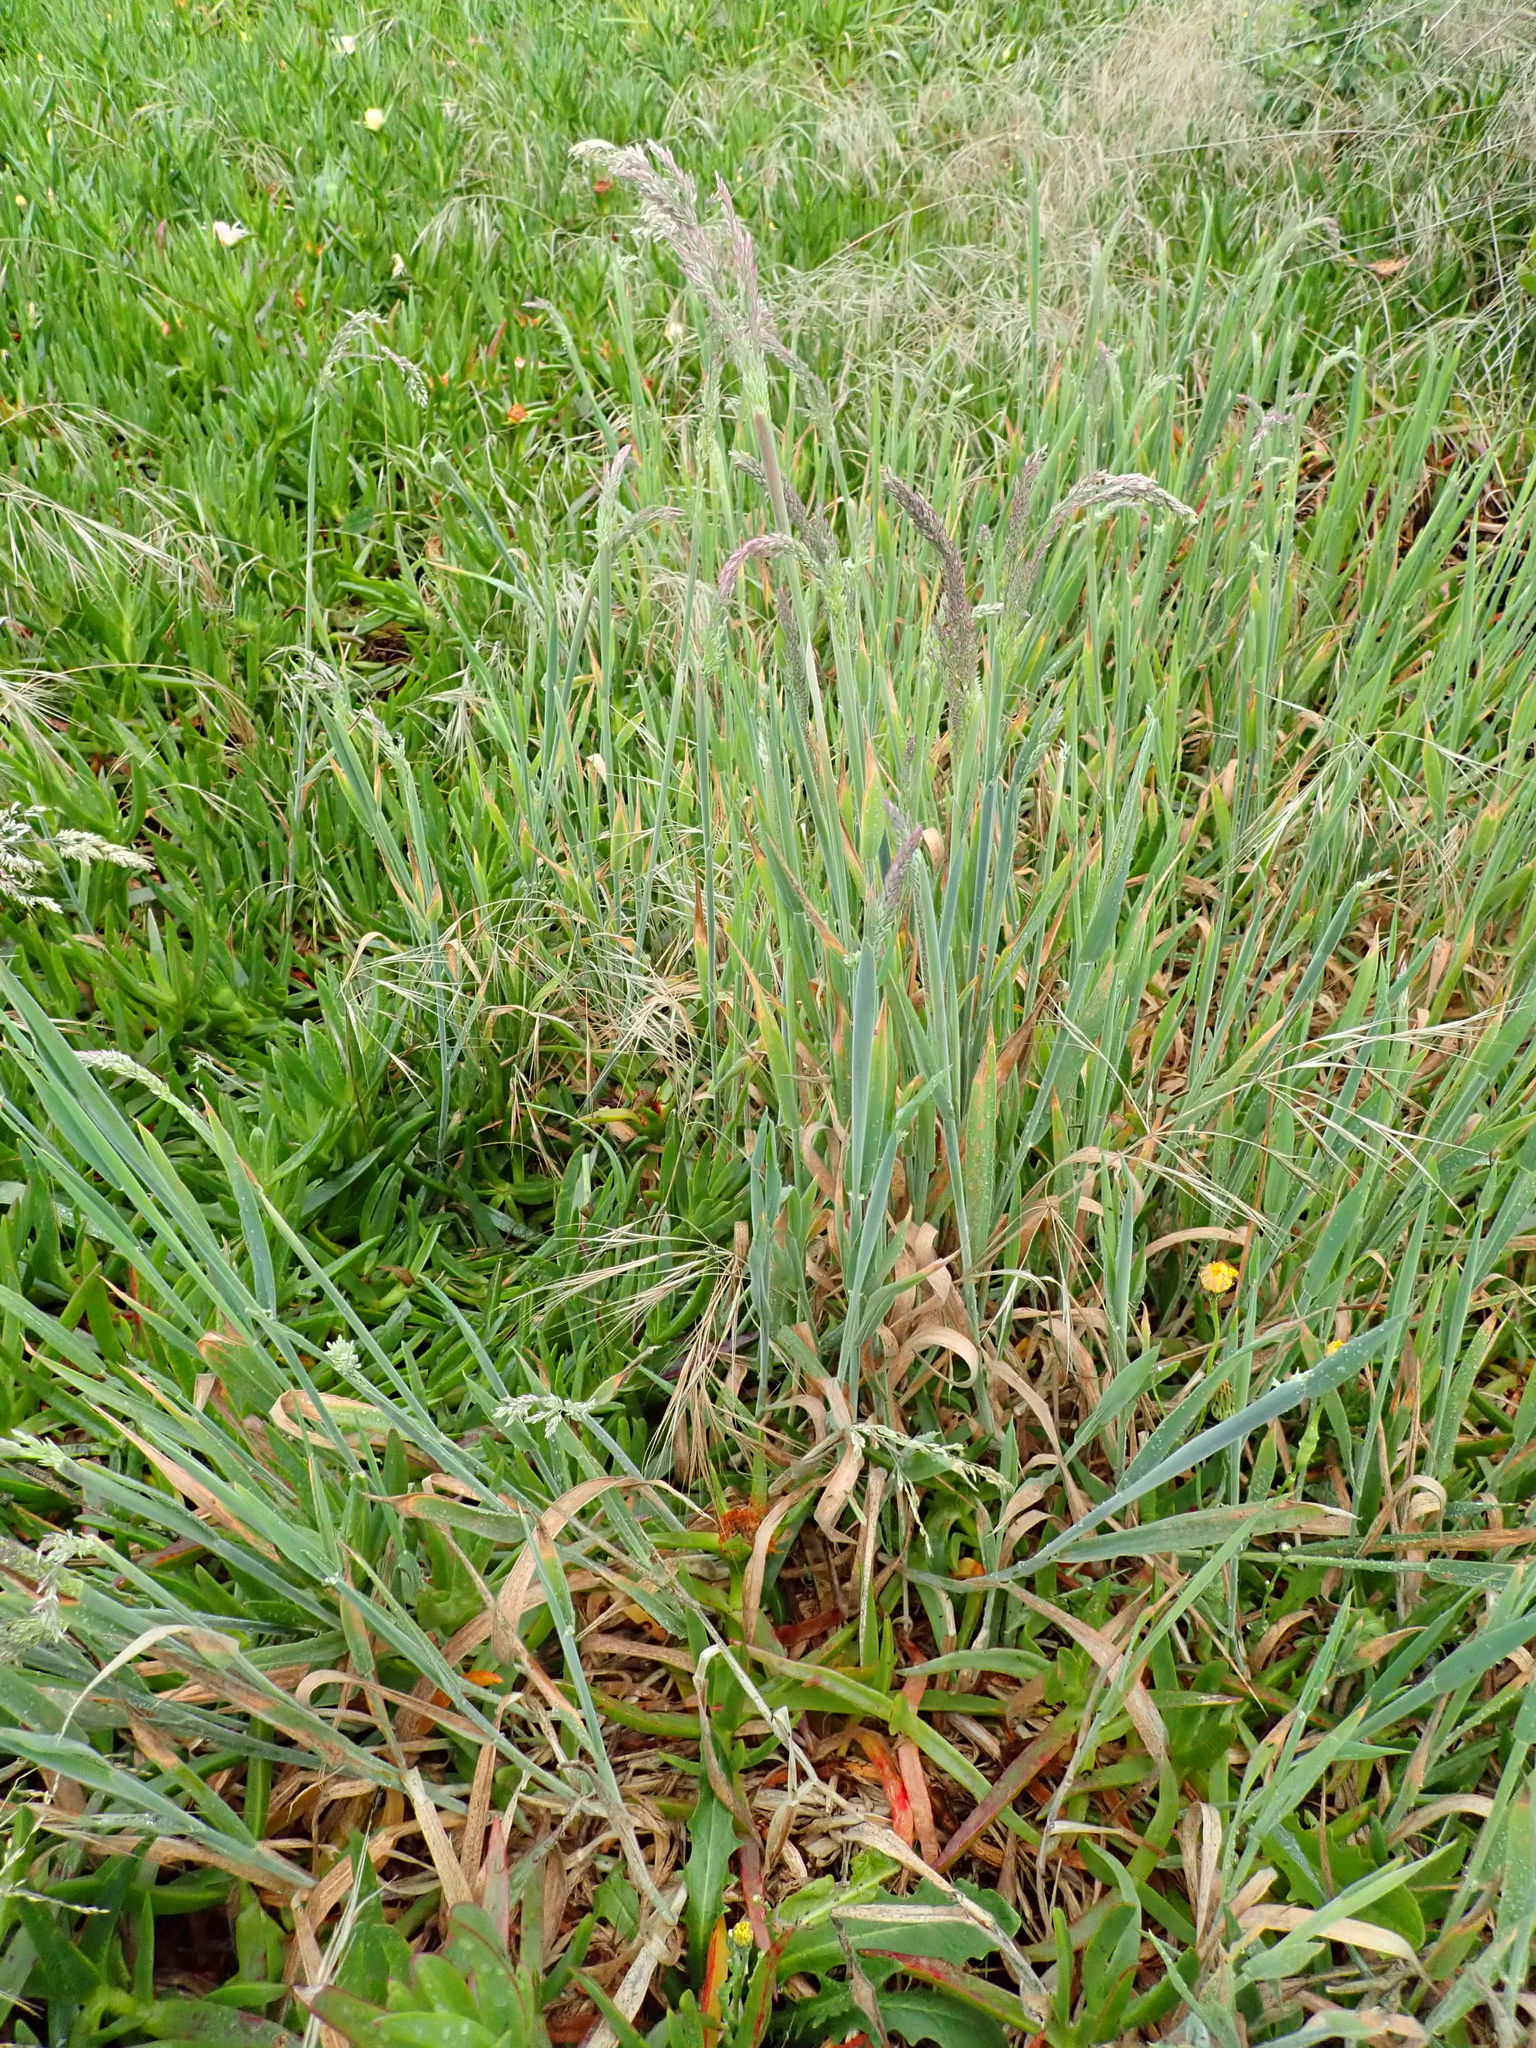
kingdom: Plantae
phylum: Tracheophyta
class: Liliopsida
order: Poales
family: Poaceae
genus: Holcus
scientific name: Holcus lanatus
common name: Yorkshire-fog
